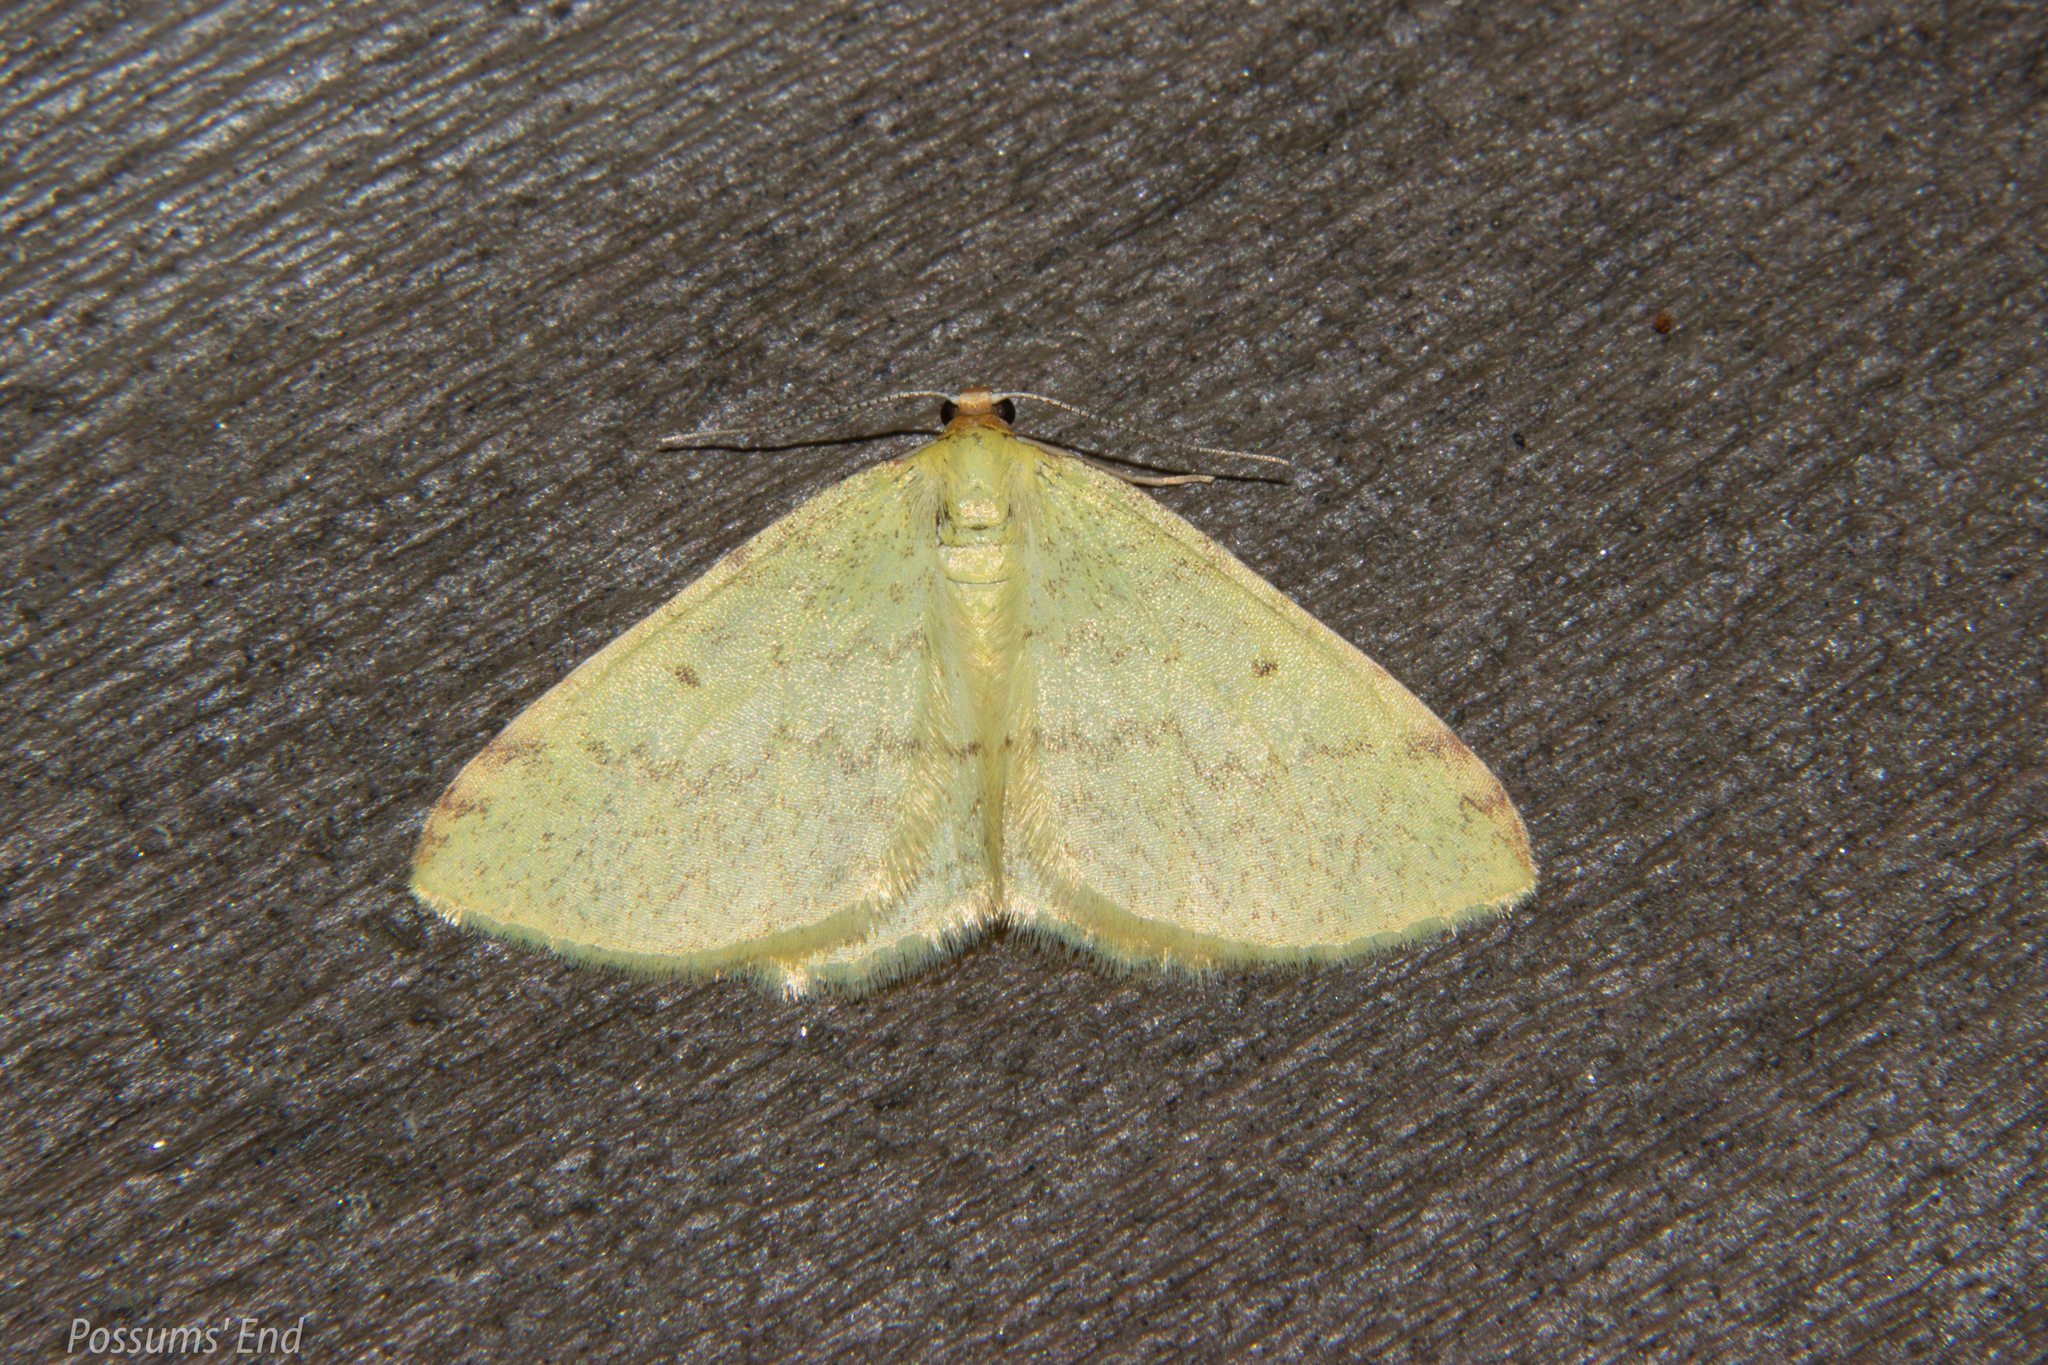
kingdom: Animalia
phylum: Arthropoda
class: Insecta
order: Lepidoptera
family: Geometridae
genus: Epiphryne
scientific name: Epiphryne undosata
